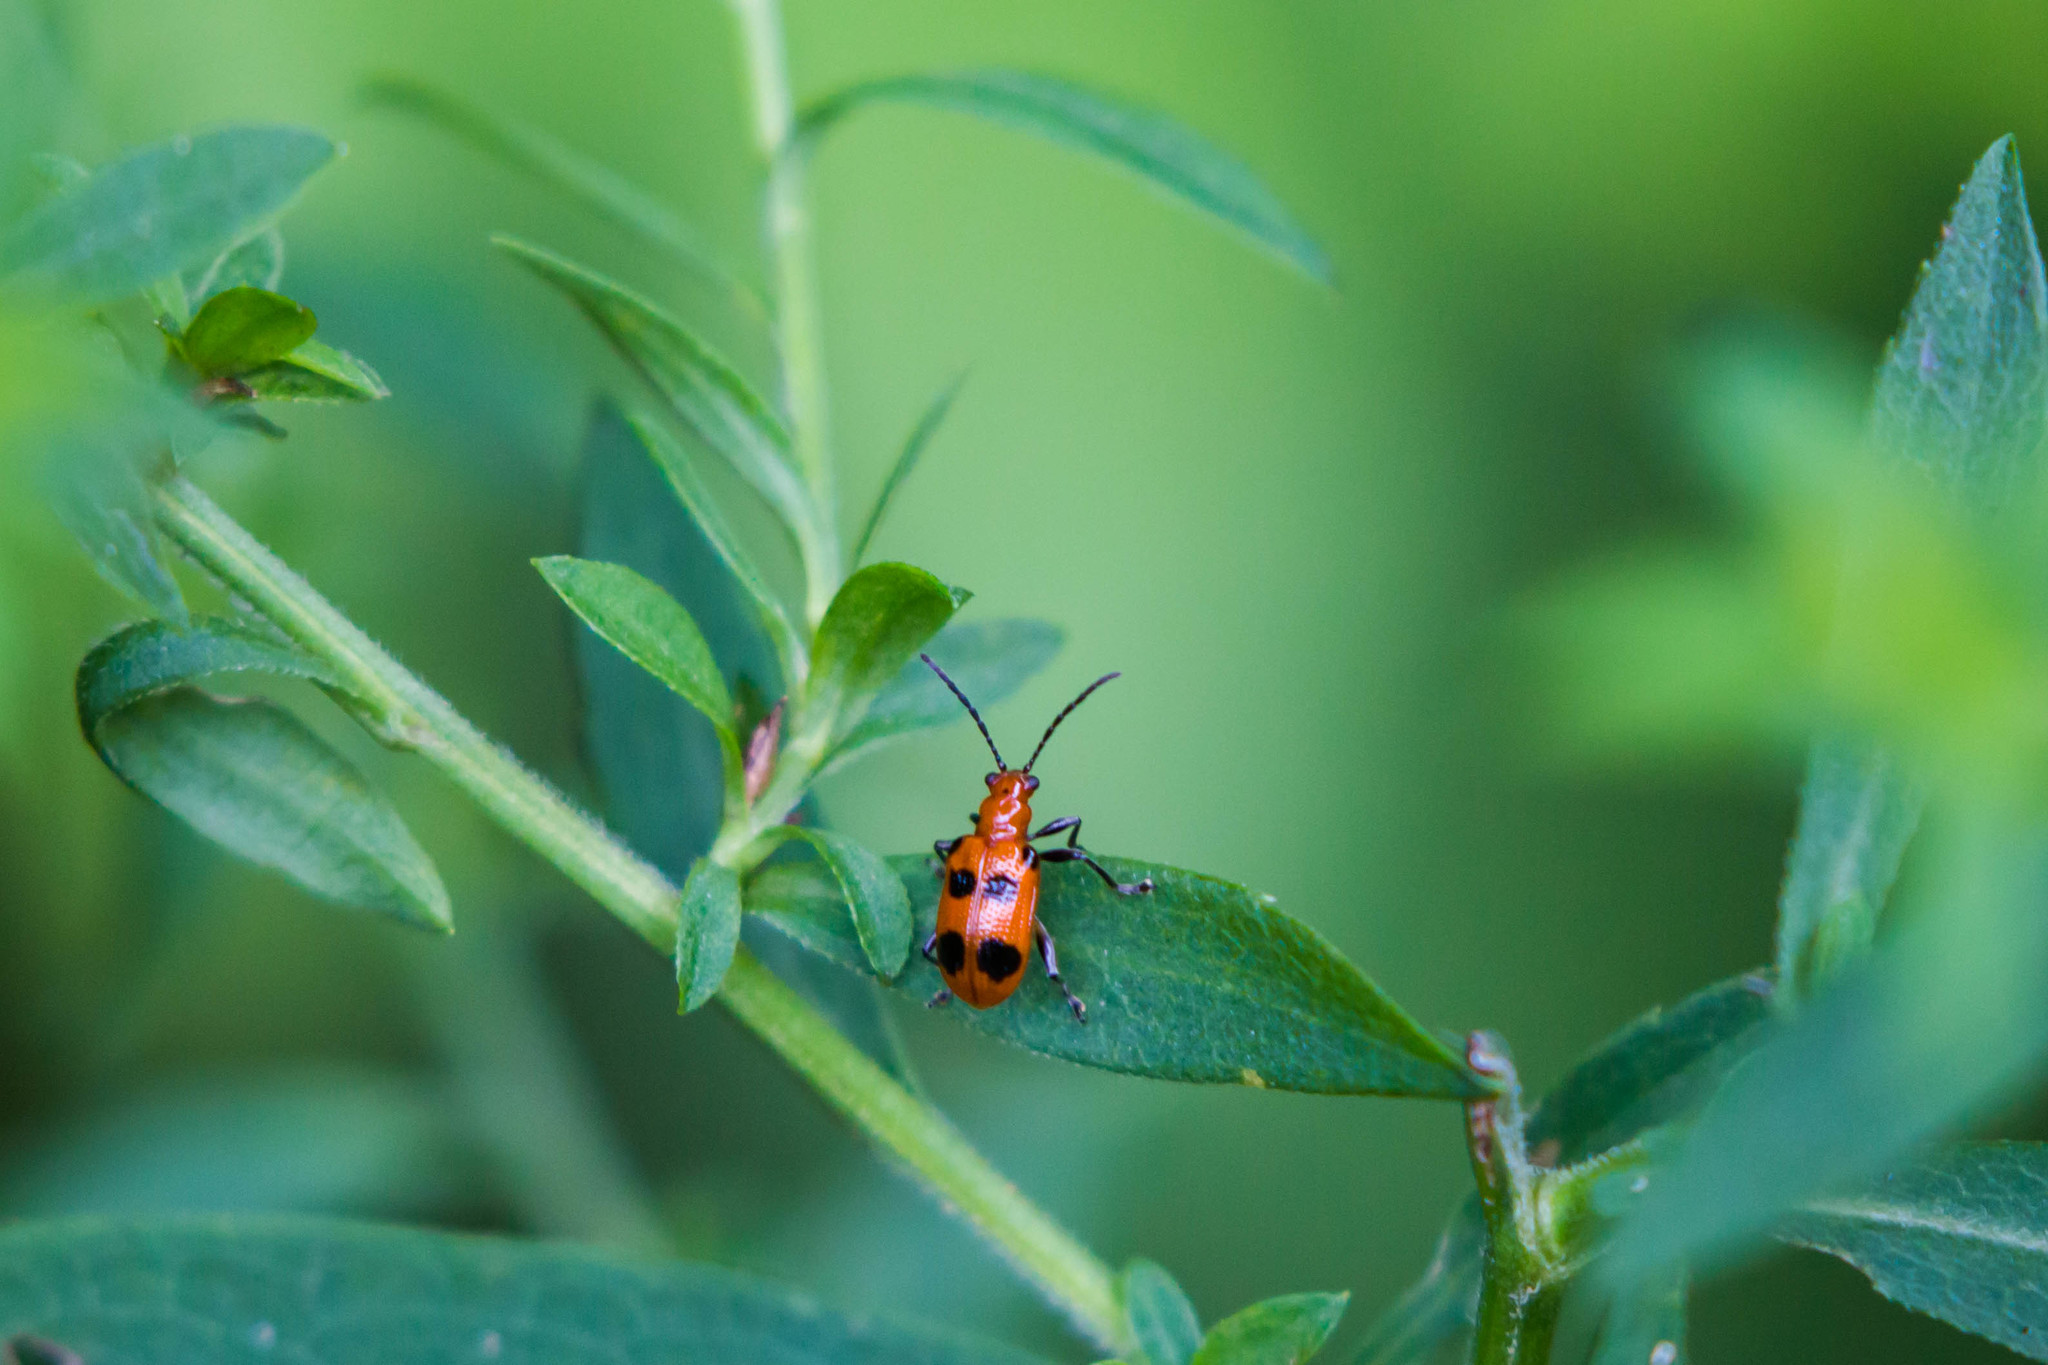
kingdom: Animalia
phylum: Arthropoda
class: Insecta
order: Coleoptera
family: Chrysomelidae
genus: Neolema
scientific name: Neolema sexpunctata
